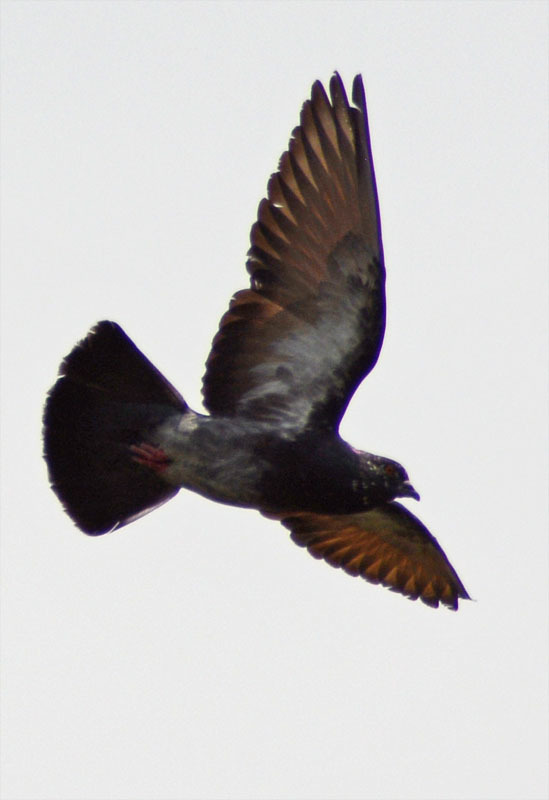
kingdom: Animalia
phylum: Chordata
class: Aves
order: Columbiformes
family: Columbidae
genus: Columba
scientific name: Columba livia
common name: Rock pigeon
